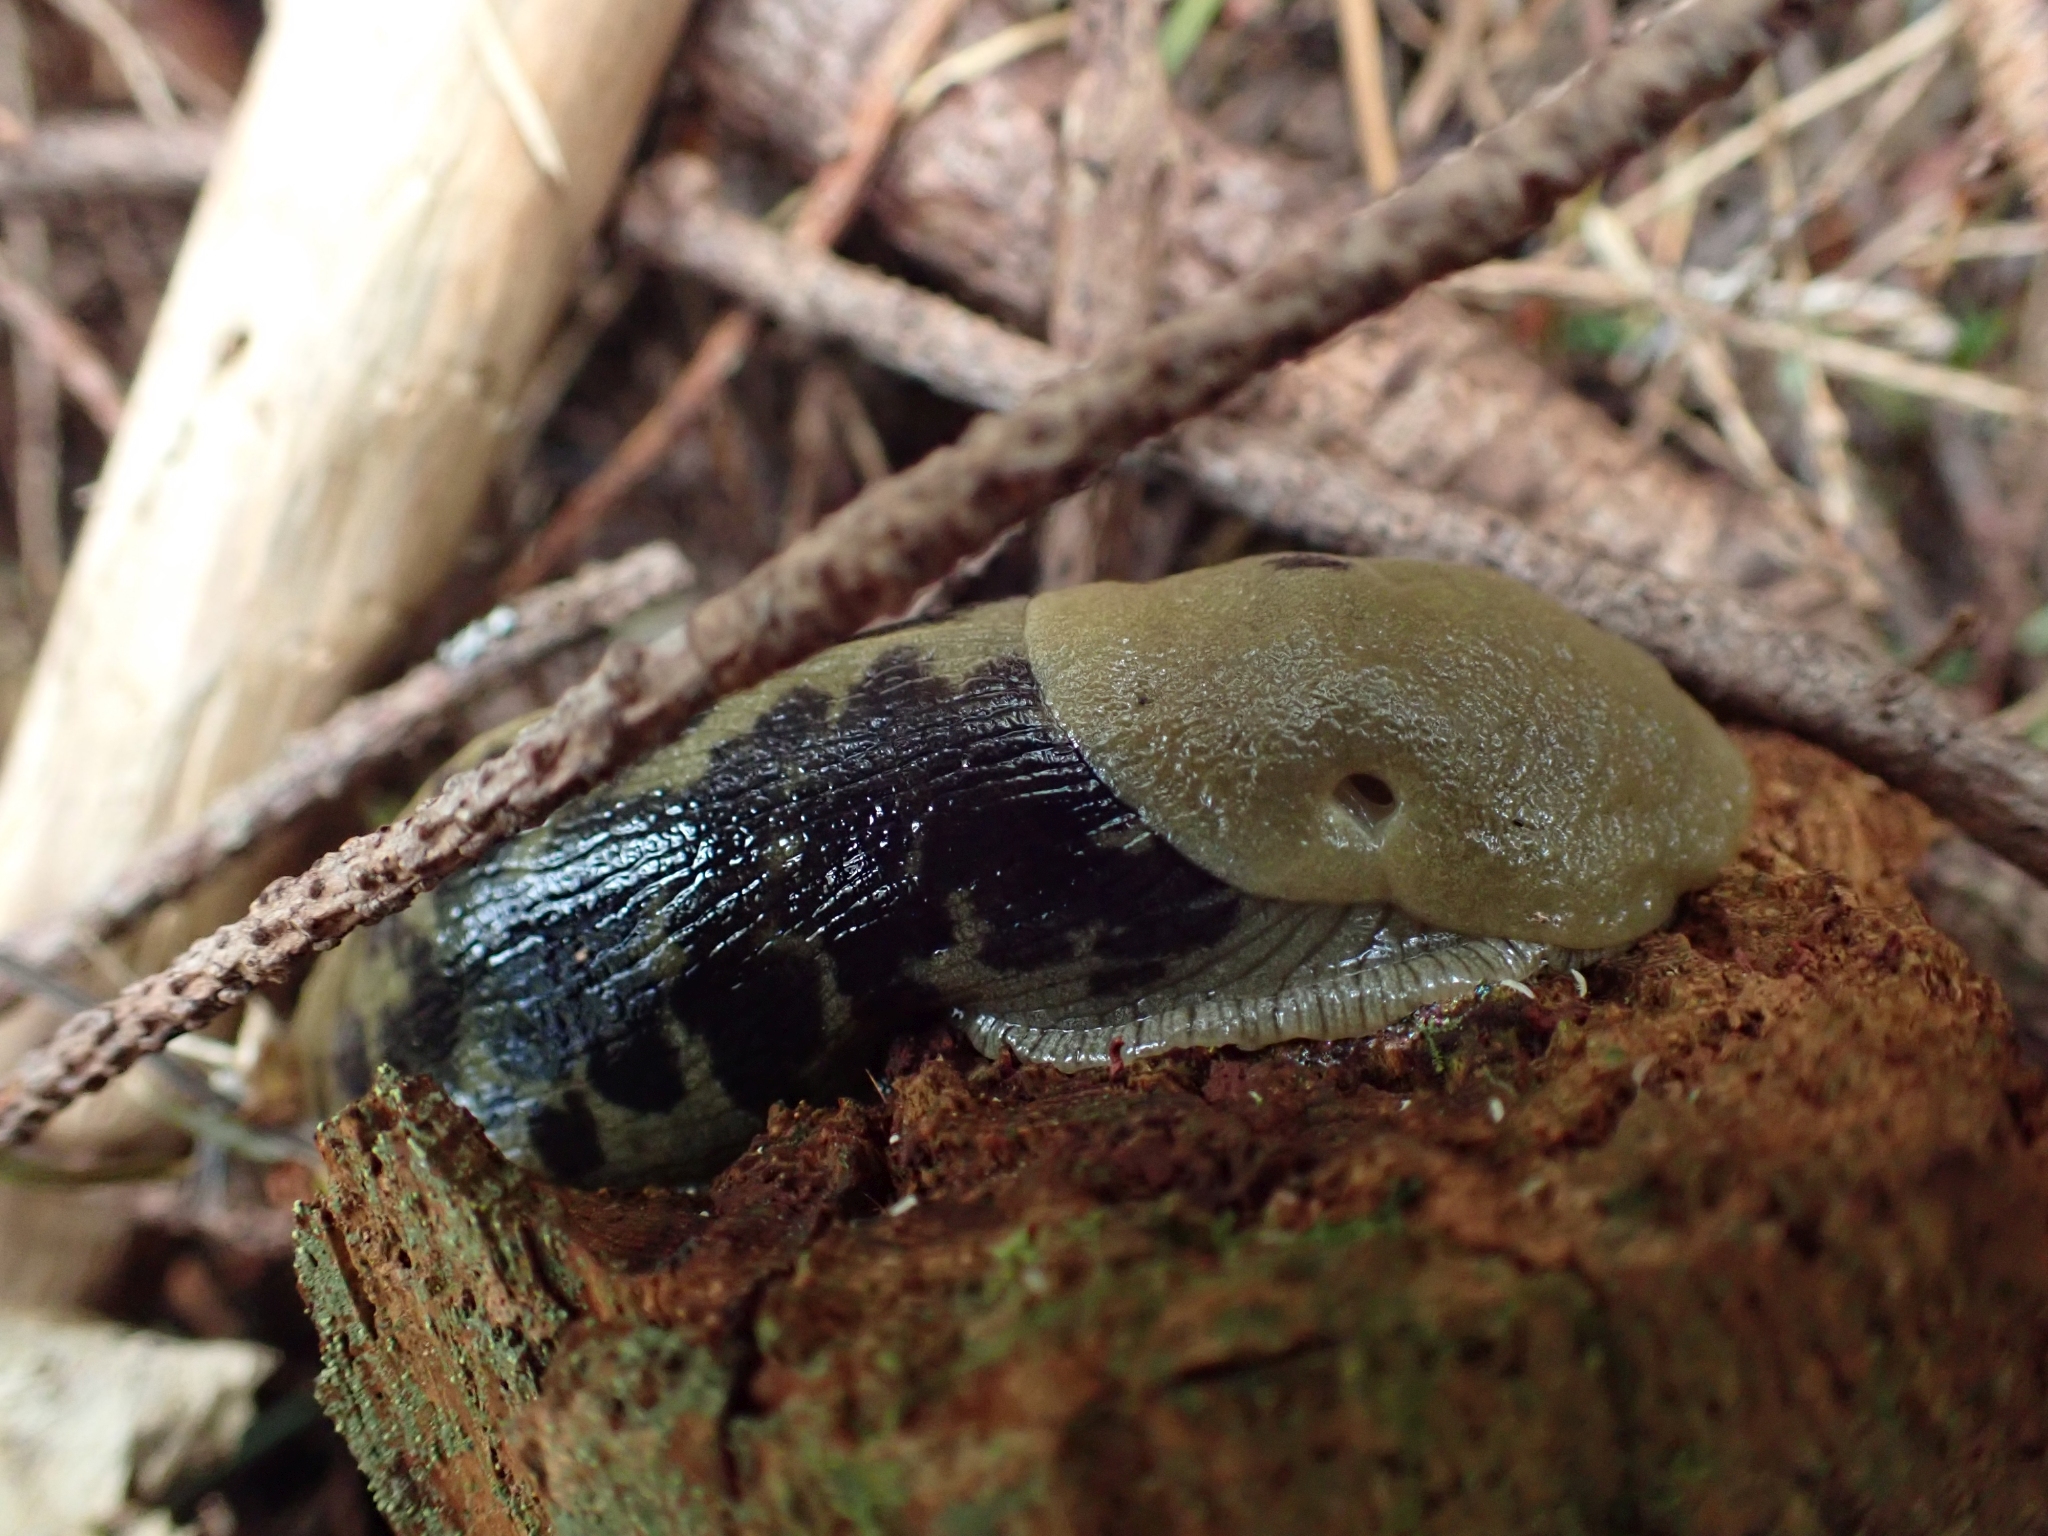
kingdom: Animalia
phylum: Mollusca
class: Gastropoda
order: Stylommatophora
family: Ariolimacidae
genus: Ariolimax
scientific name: Ariolimax columbianus
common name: Pacific banana slug
